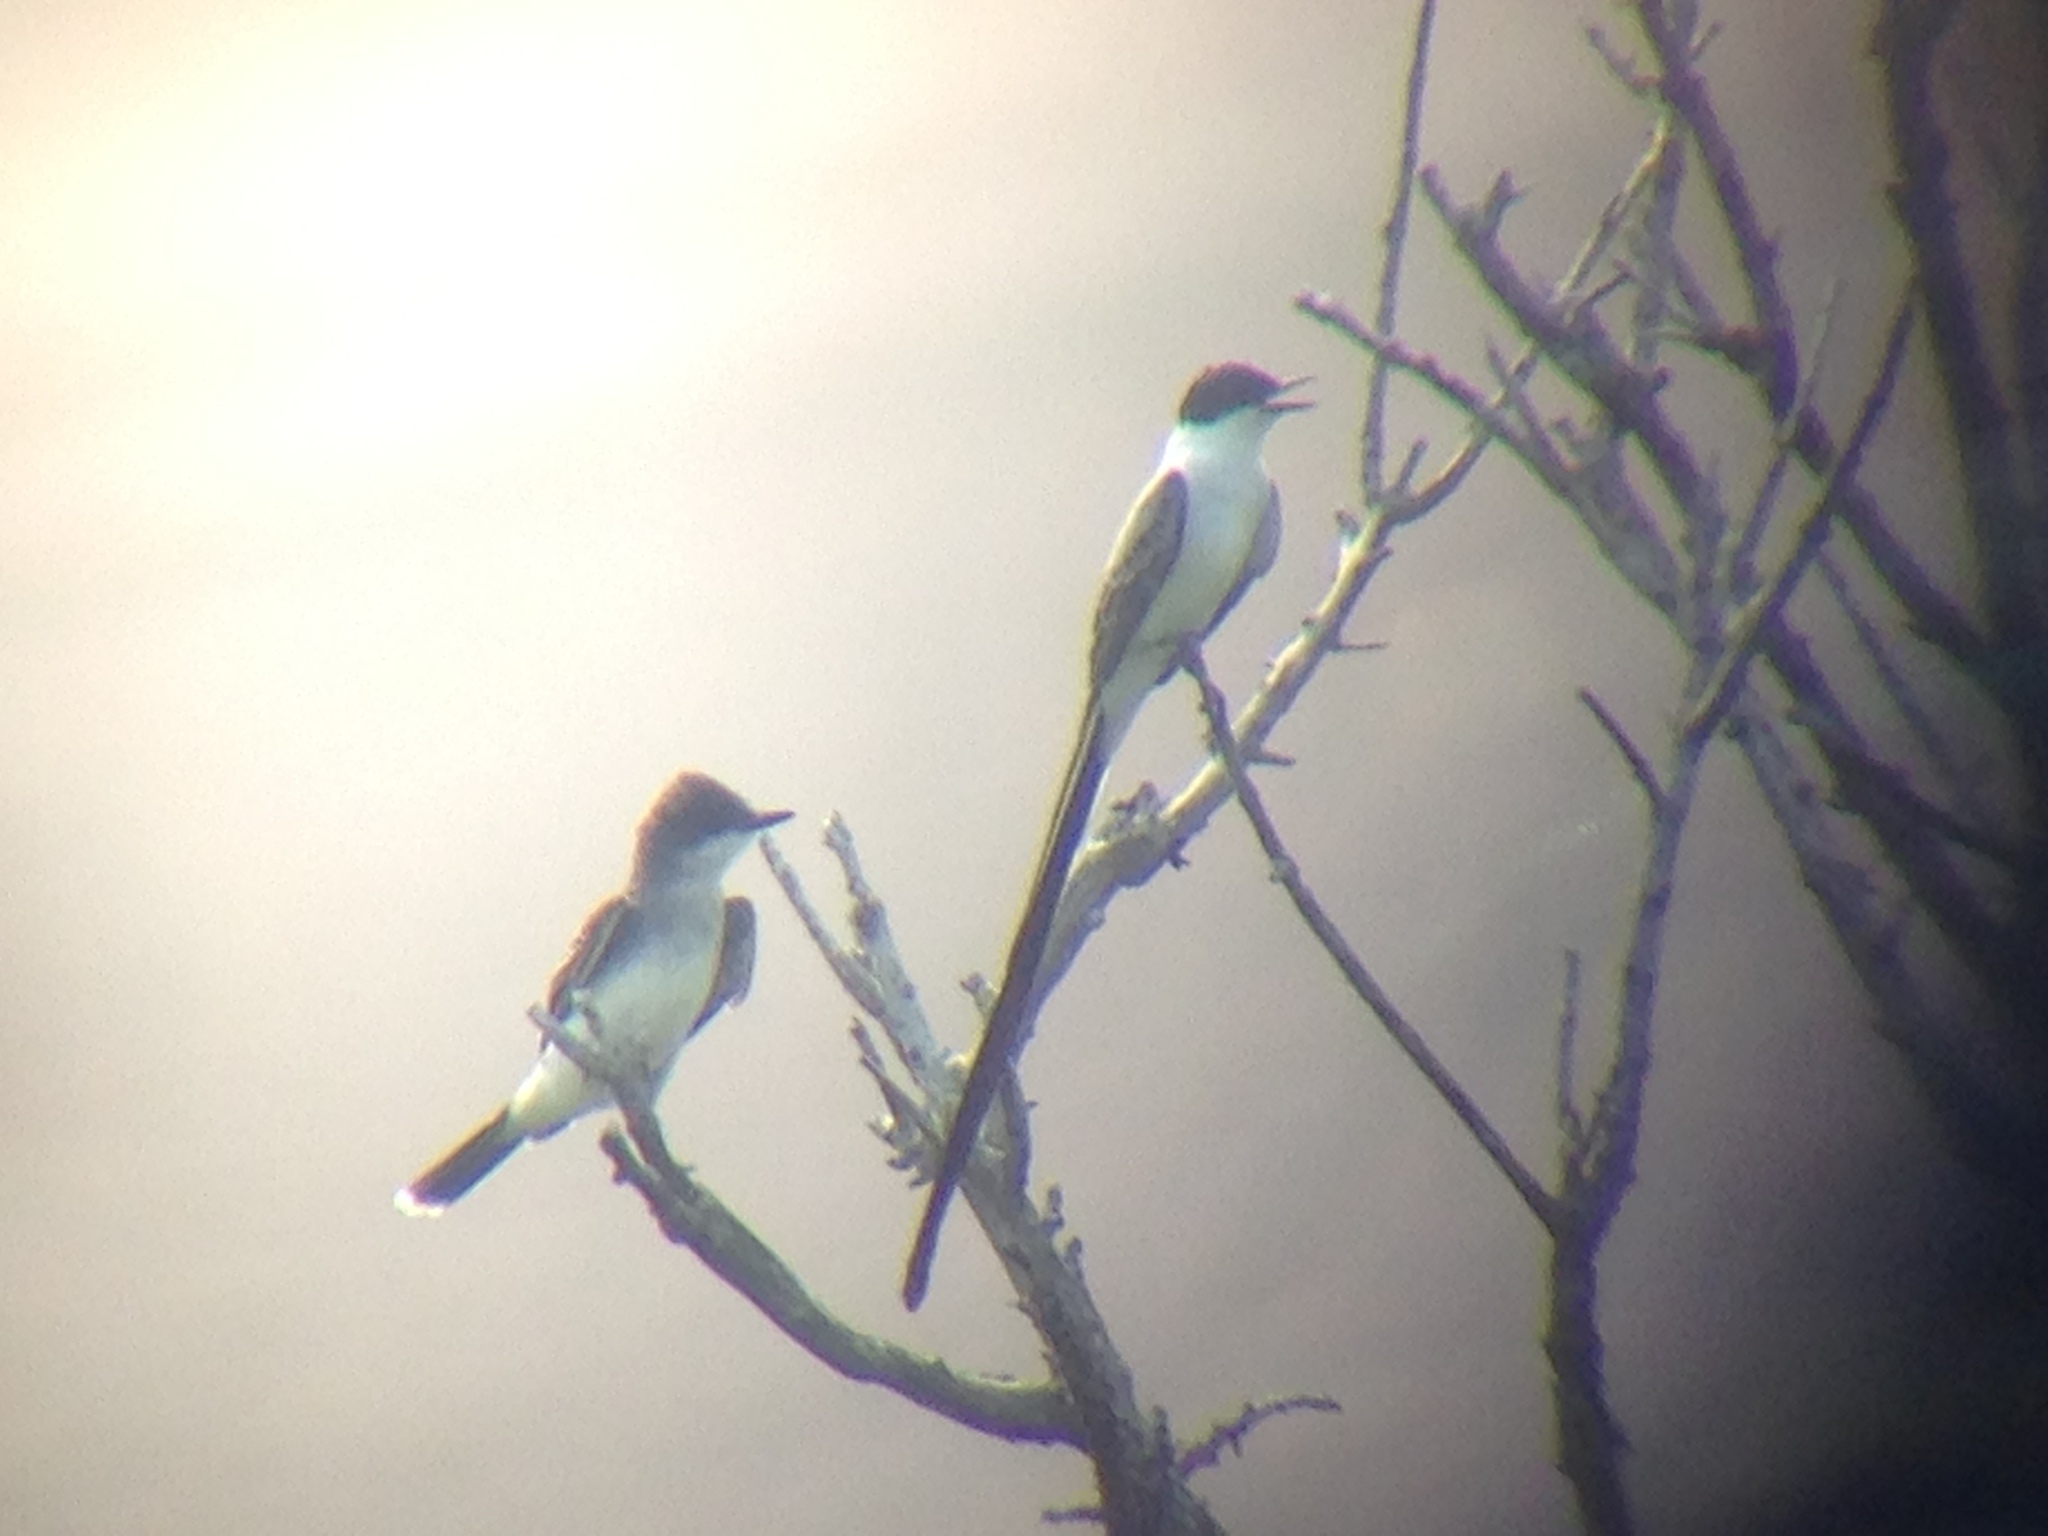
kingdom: Animalia
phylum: Chordata
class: Aves
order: Passeriformes
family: Tyrannidae
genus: Tyrannus
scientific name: Tyrannus tyrannus
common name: Eastern kingbird
